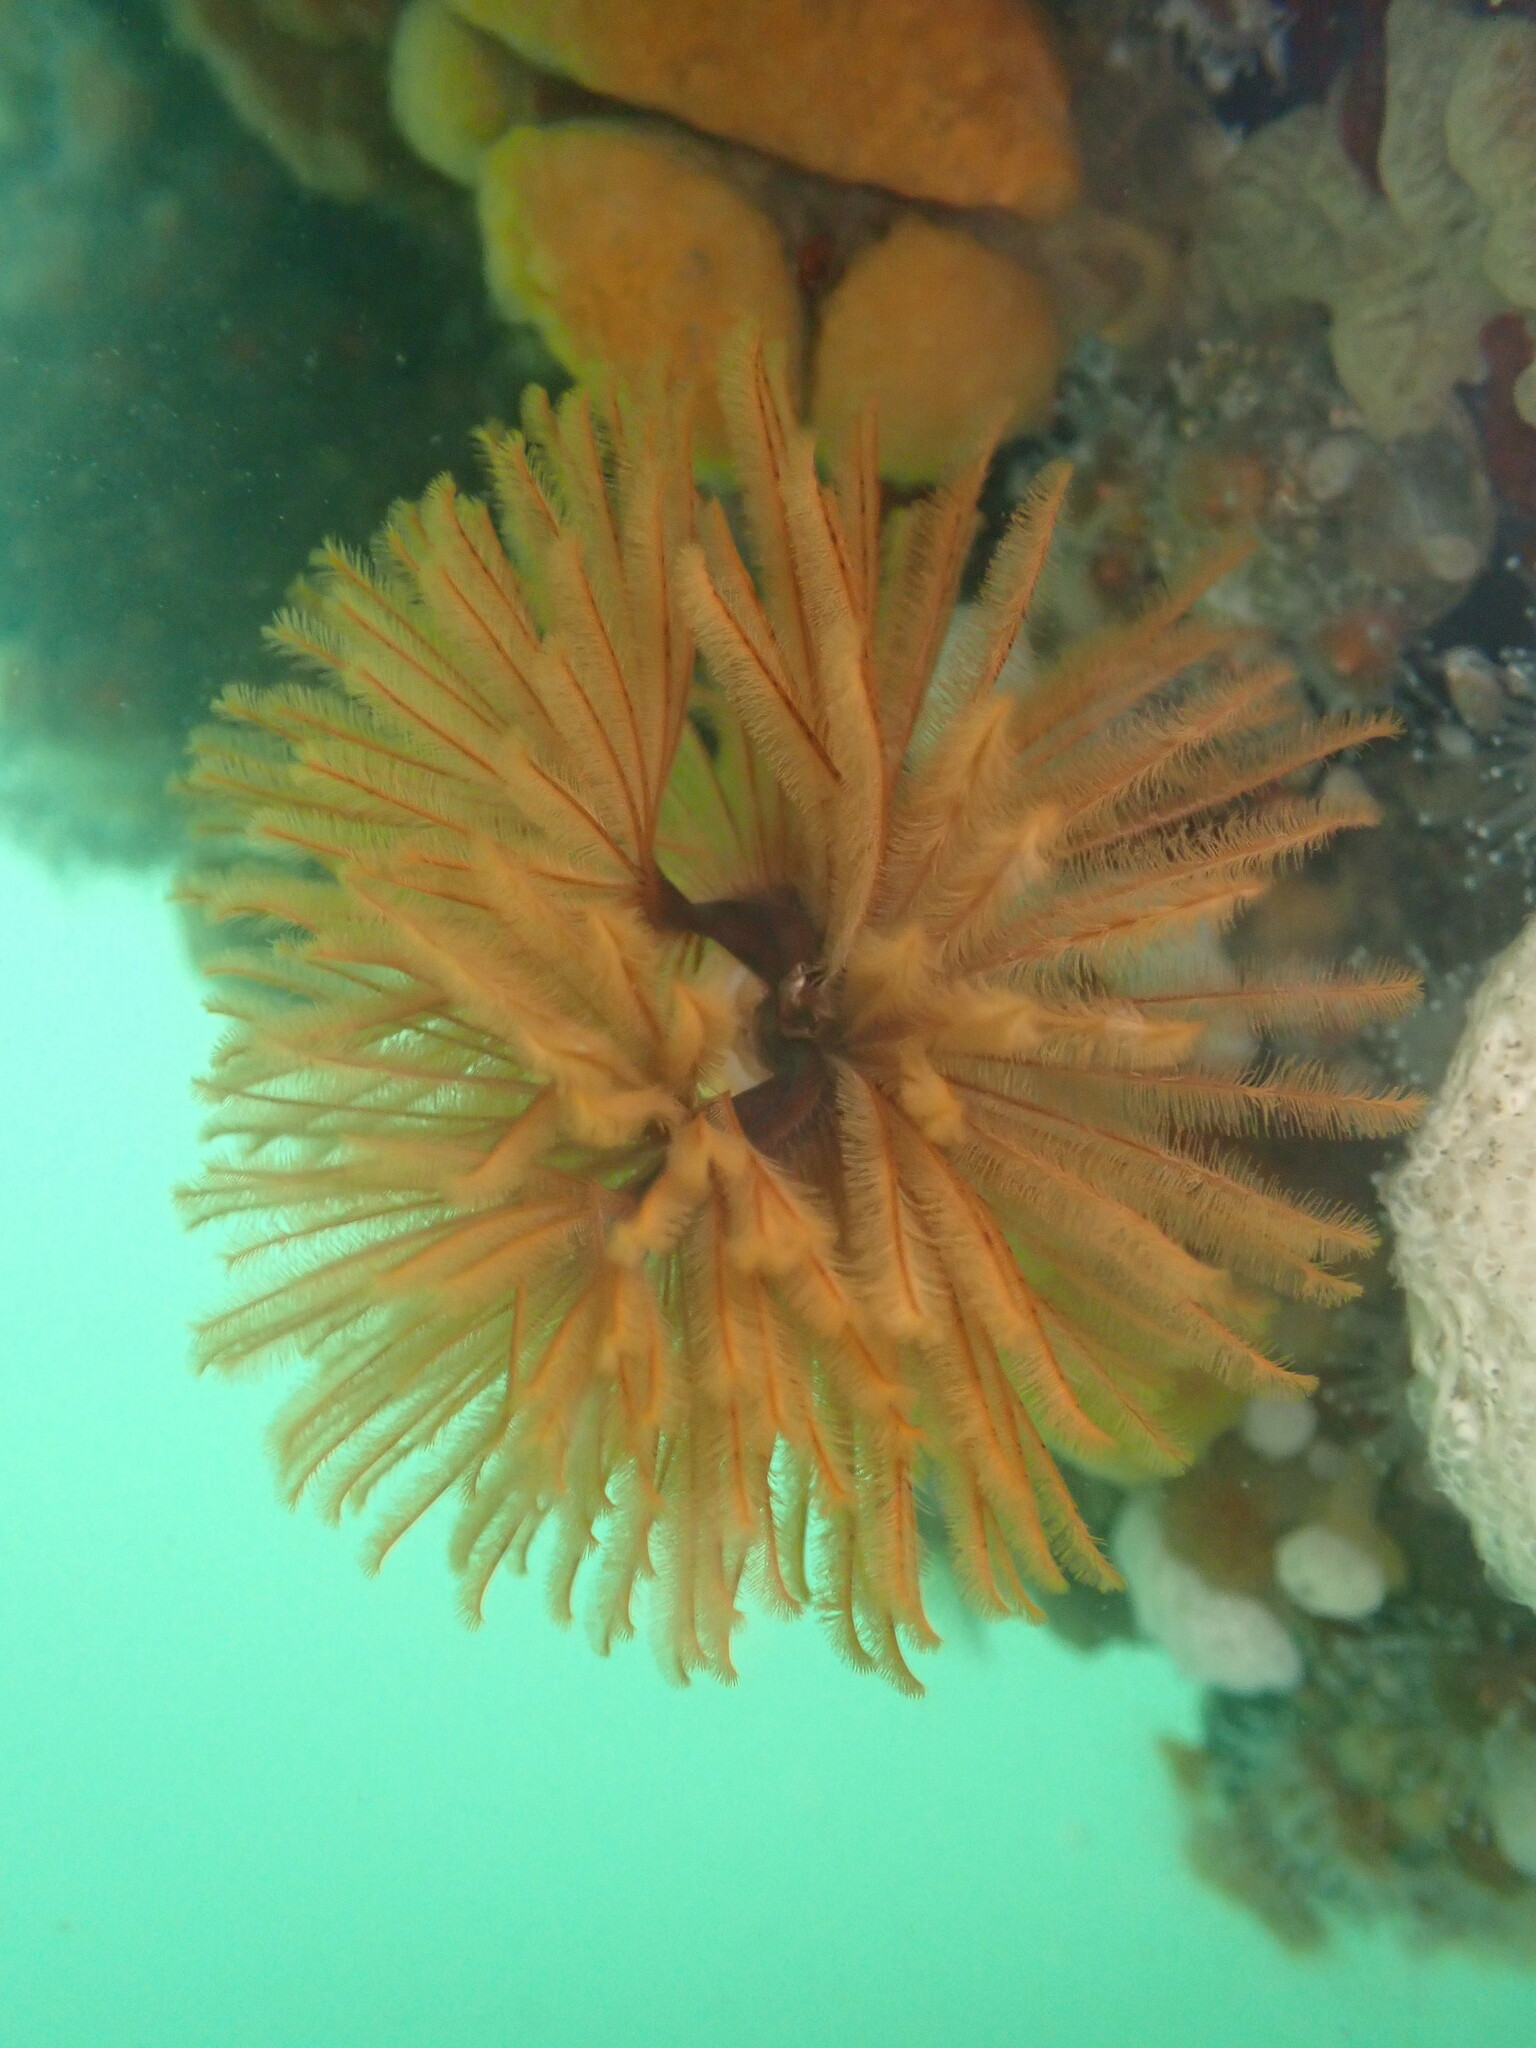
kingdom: Animalia
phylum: Annelida
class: Polychaeta
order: Sabellida
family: Sabellidae
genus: Eudistylia
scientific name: Eudistylia polymorpha
